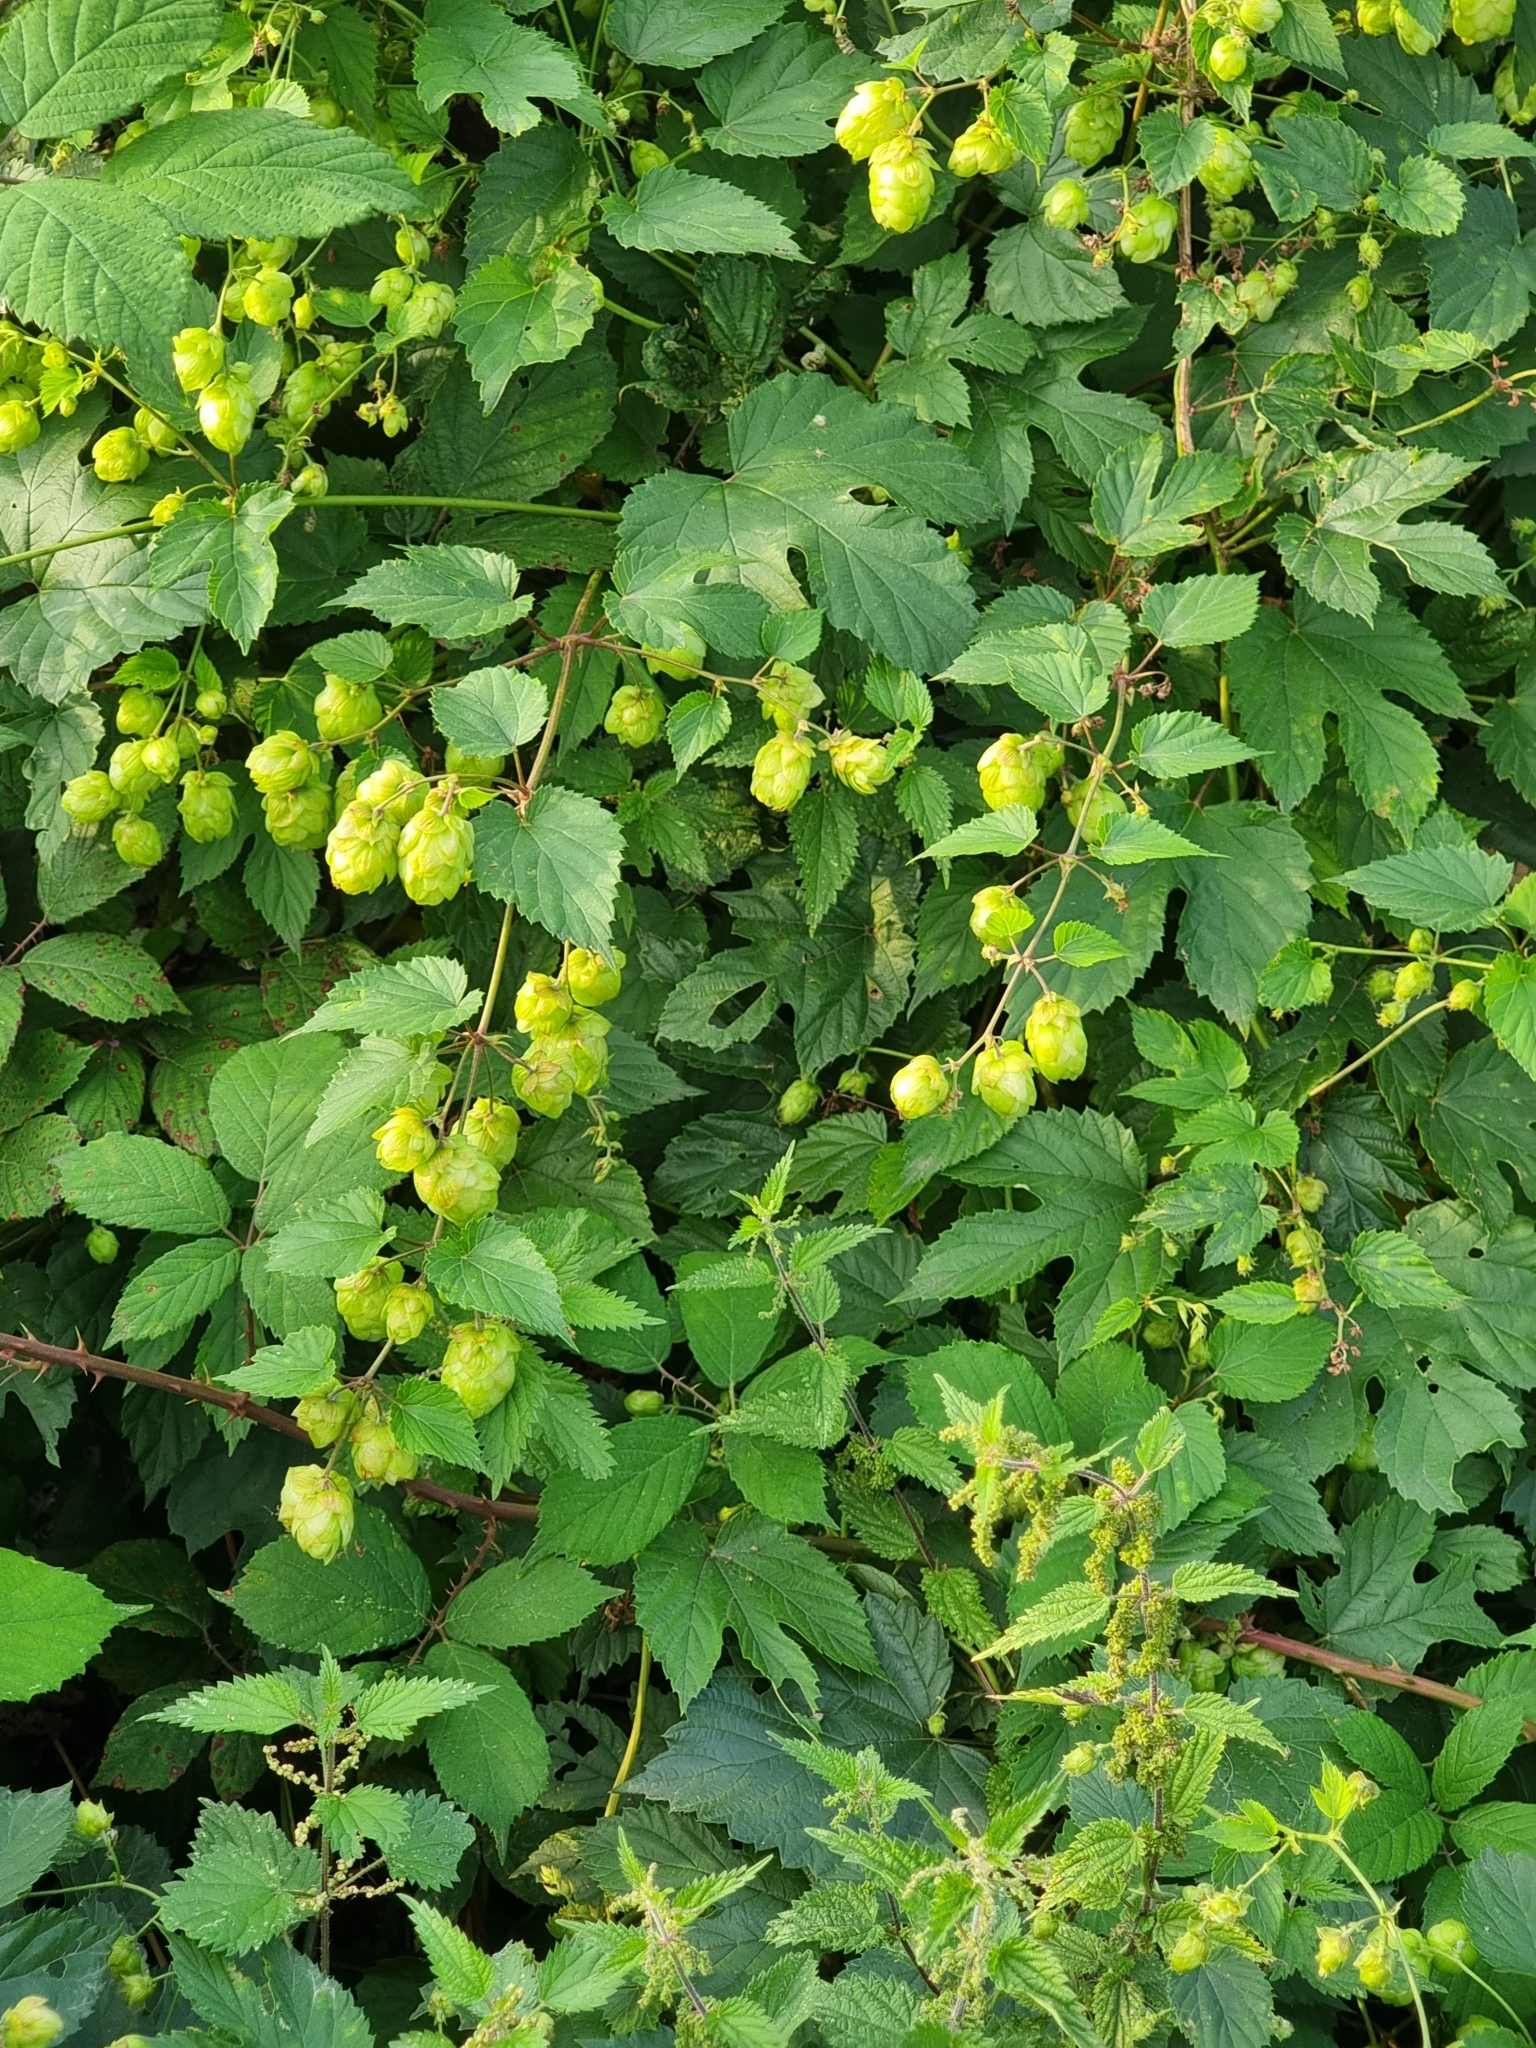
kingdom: Plantae
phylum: Tracheophyta
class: Magnoliopsida
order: Rosales
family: Cannabaceae
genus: Humulus
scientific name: Humulus lupulus
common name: Hop
